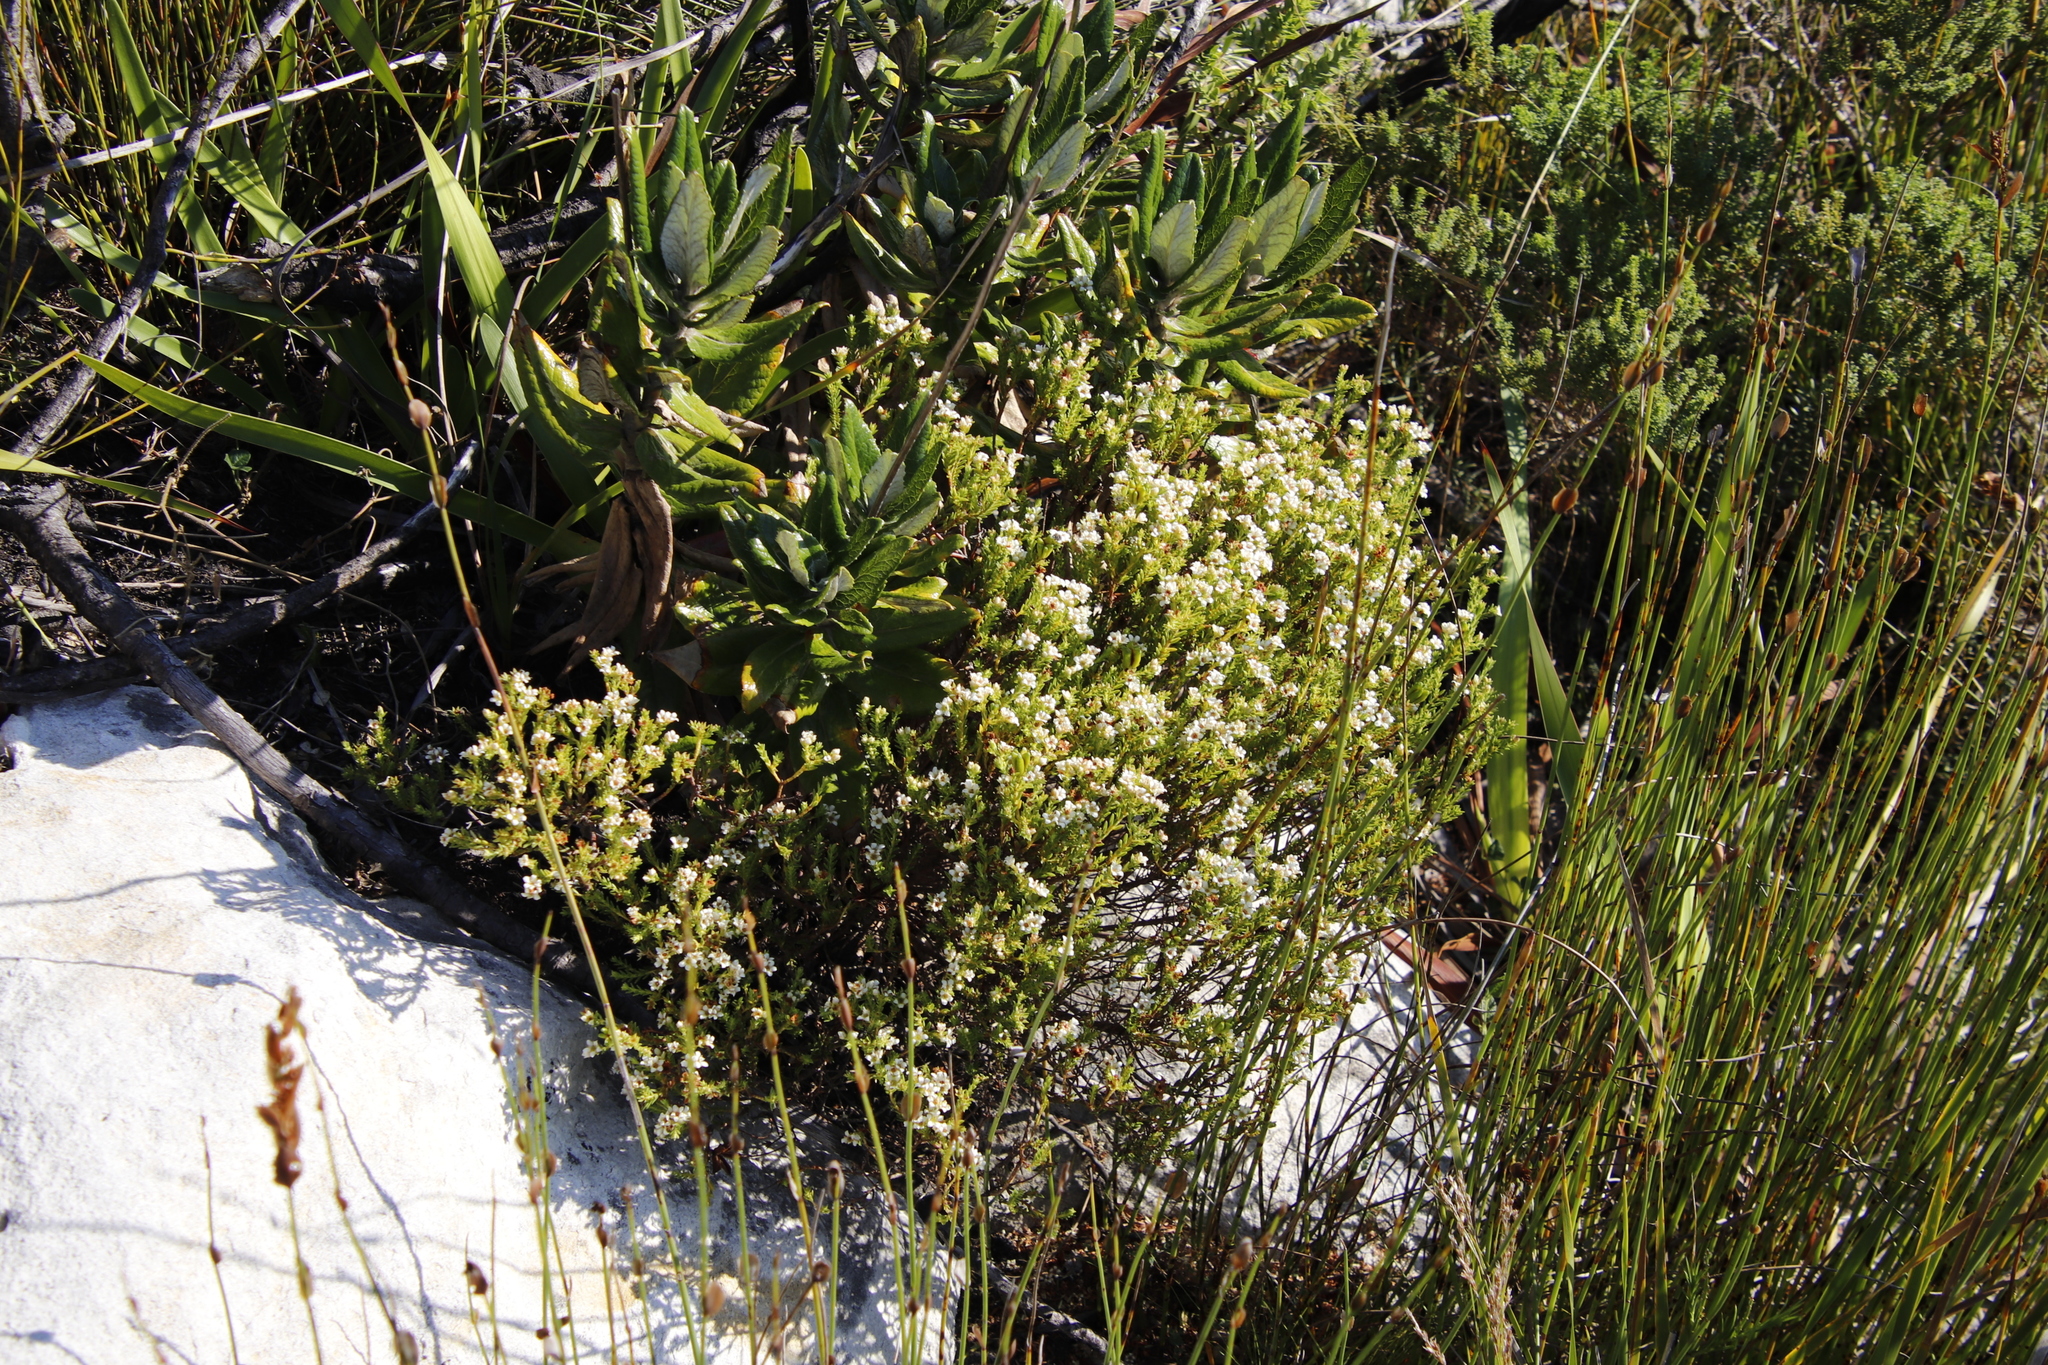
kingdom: Plantae
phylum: Tracheophyta
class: Magnoliopsida
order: Sapindales
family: Rutaceae
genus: Diosma
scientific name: Diosma oppositifolia
